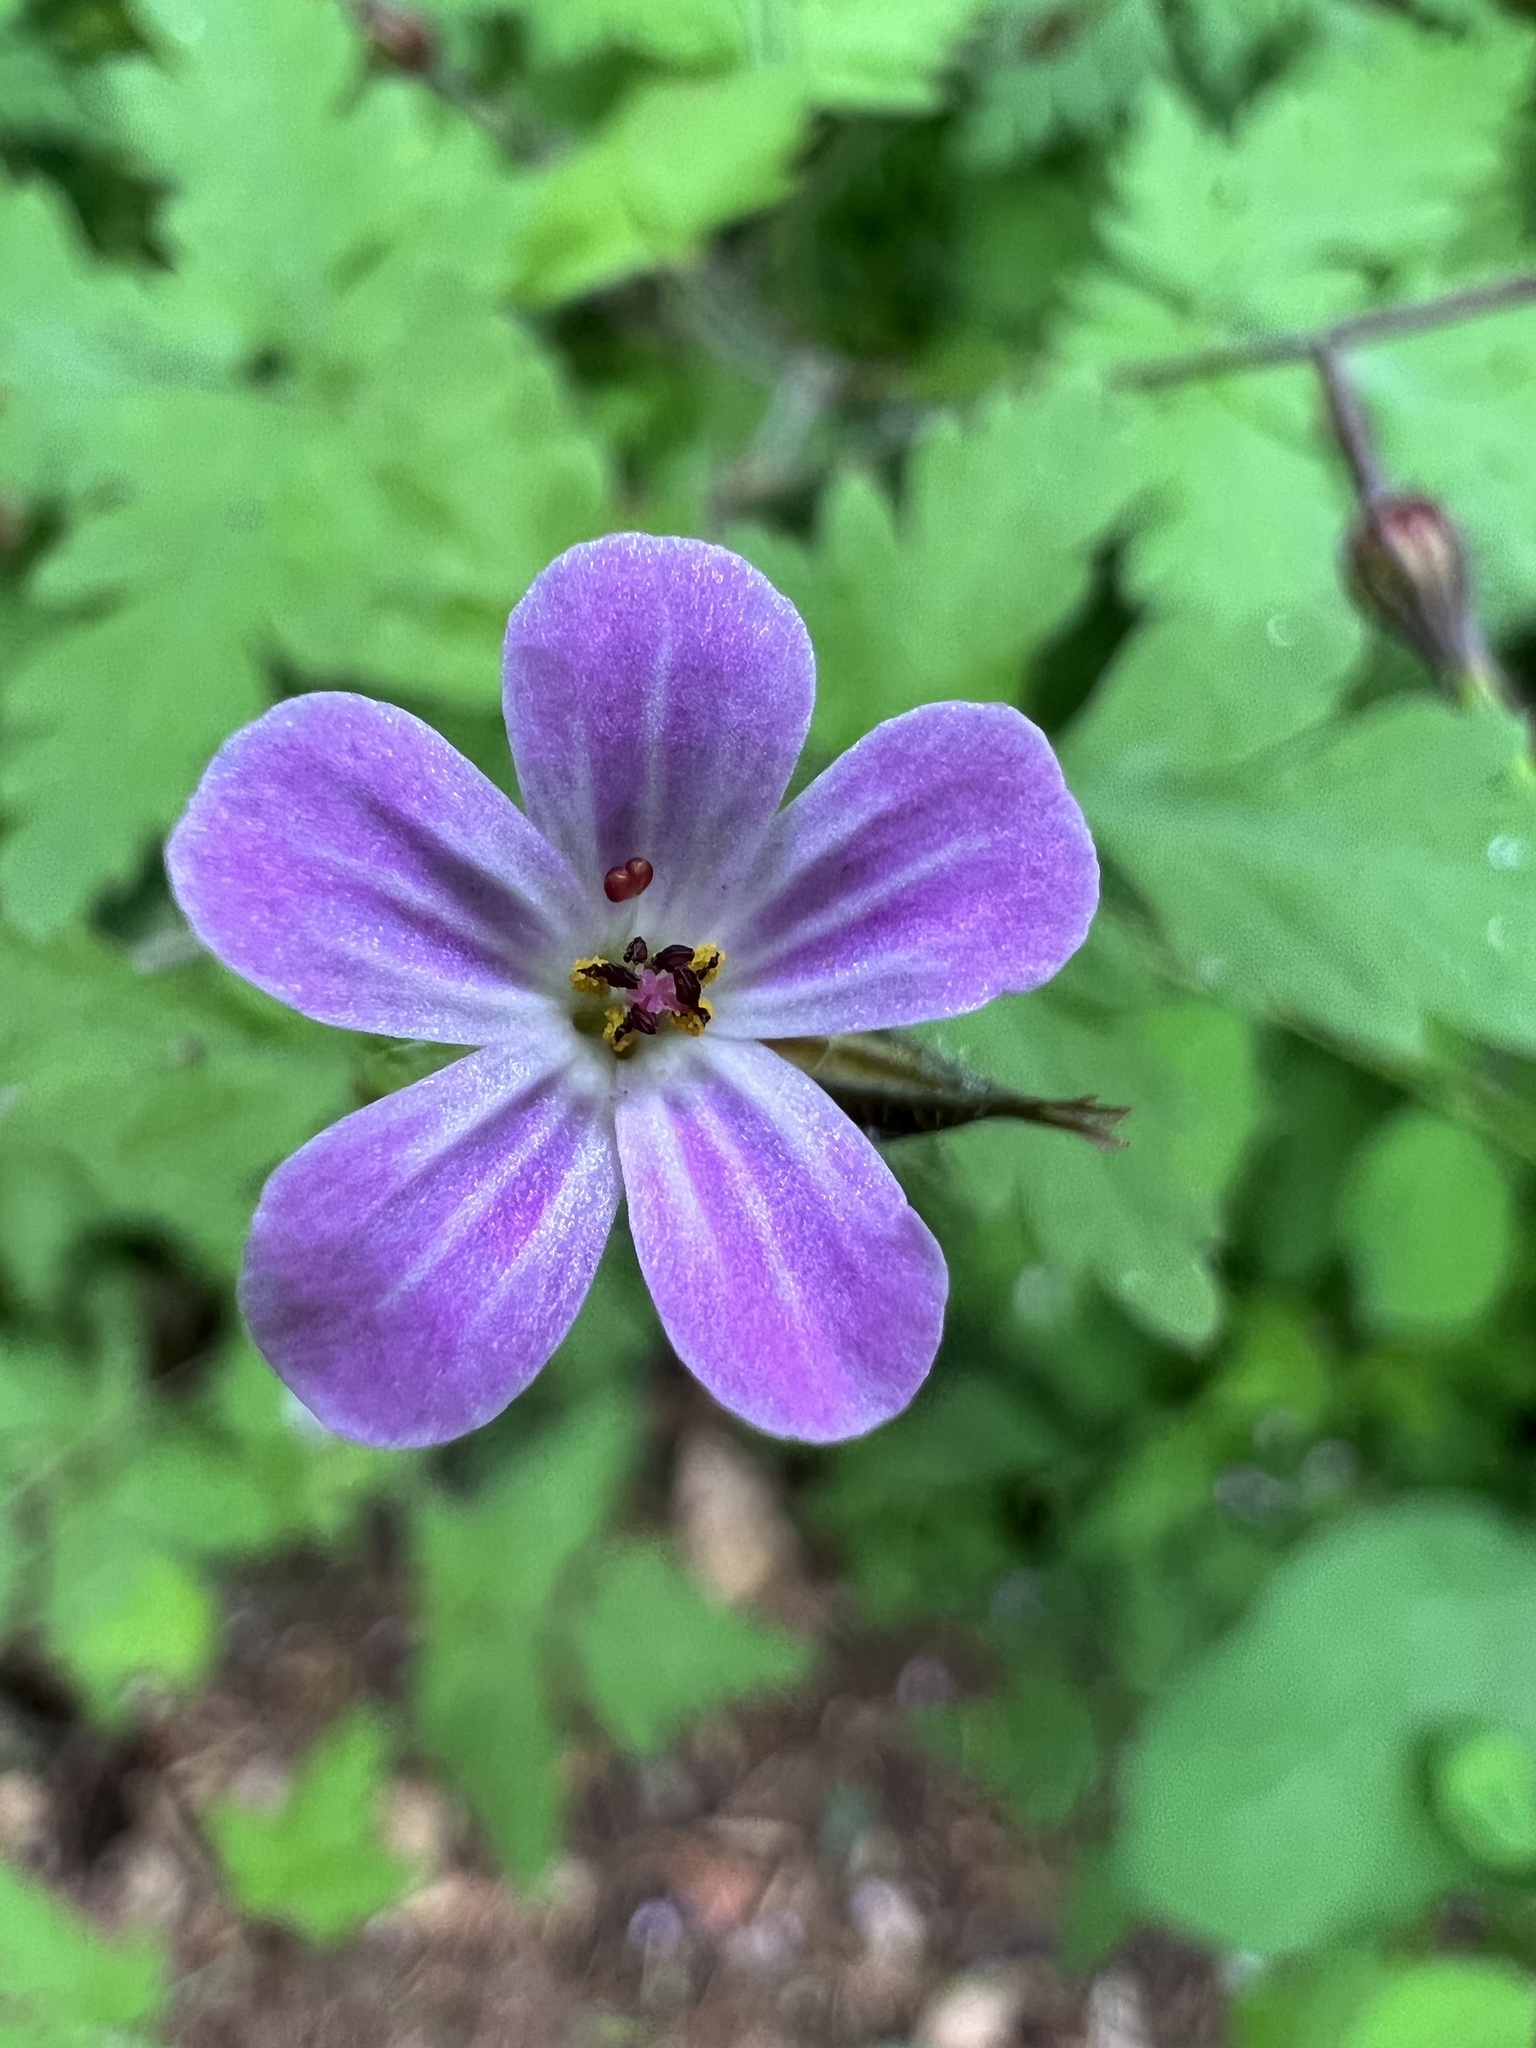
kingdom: Plantae
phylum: Tracheophyta
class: Magnoliopsida
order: Geraniales
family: Geraniaceae
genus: Geranium
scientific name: Geranium robertianum
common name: Herb-robert
